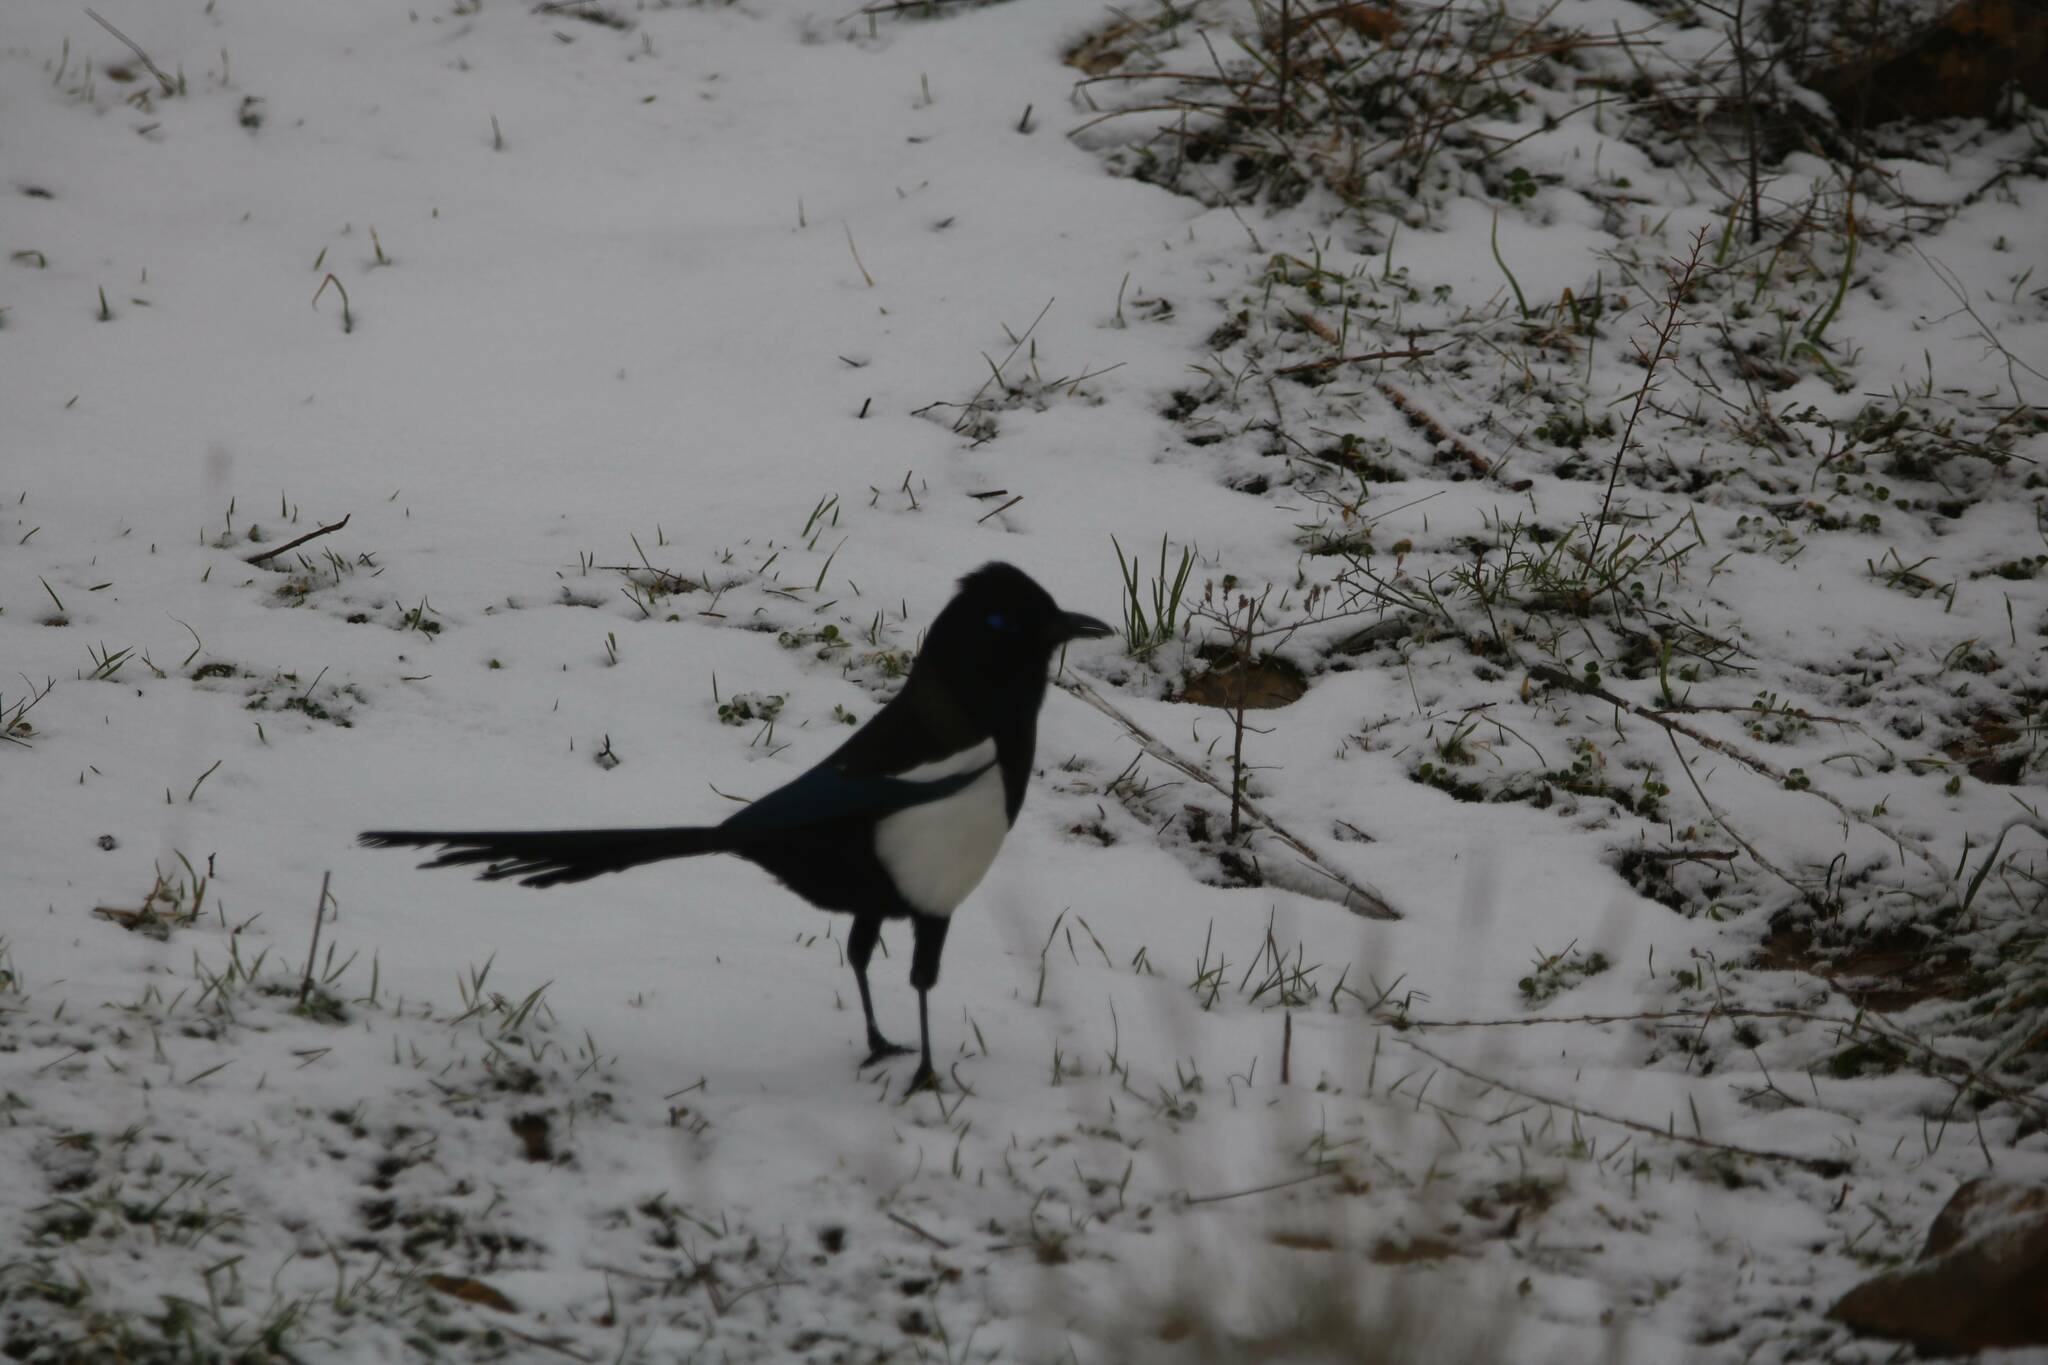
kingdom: Animalia
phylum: Chordata
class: Aves
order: Passeriformes
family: Corvidae
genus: Pica
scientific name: Pica mauritanica
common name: Maghreb magpie
